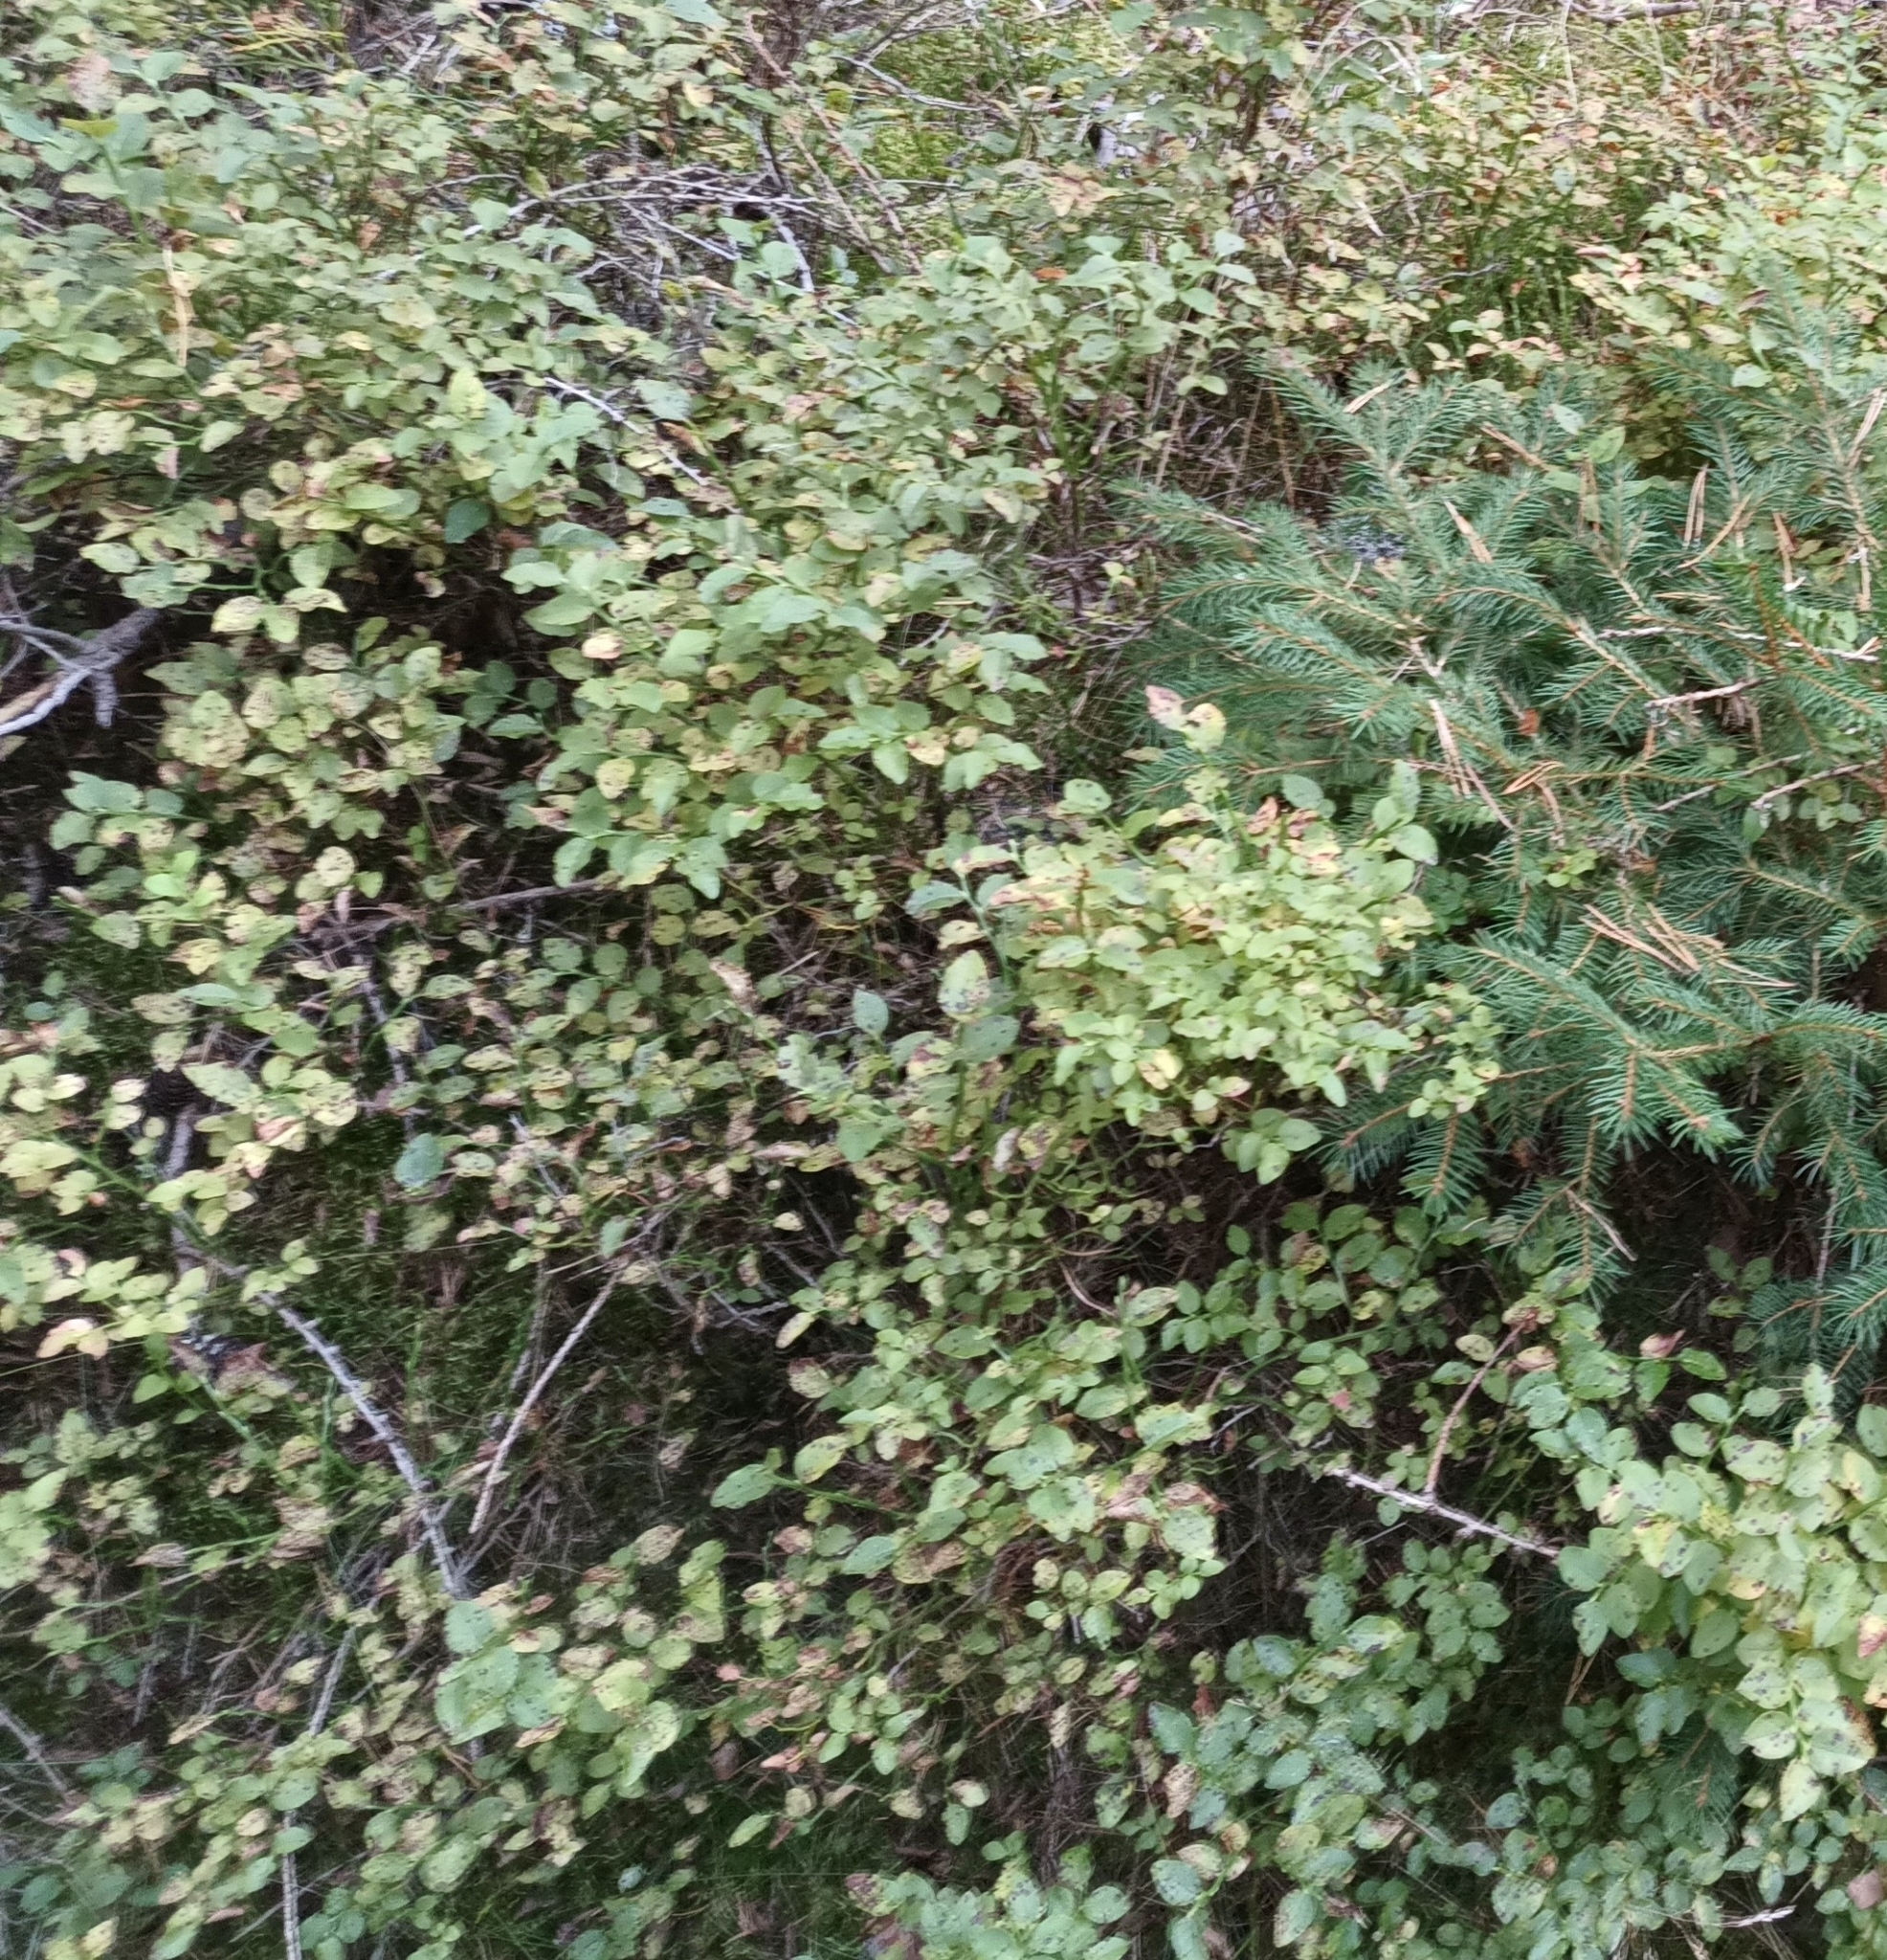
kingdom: Plantae
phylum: Tracheophyta
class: Magnoliopsida
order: Ericales
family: Ericaceae
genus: Vaccinium
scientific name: Vaccinium myrtillus
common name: Bilberry
